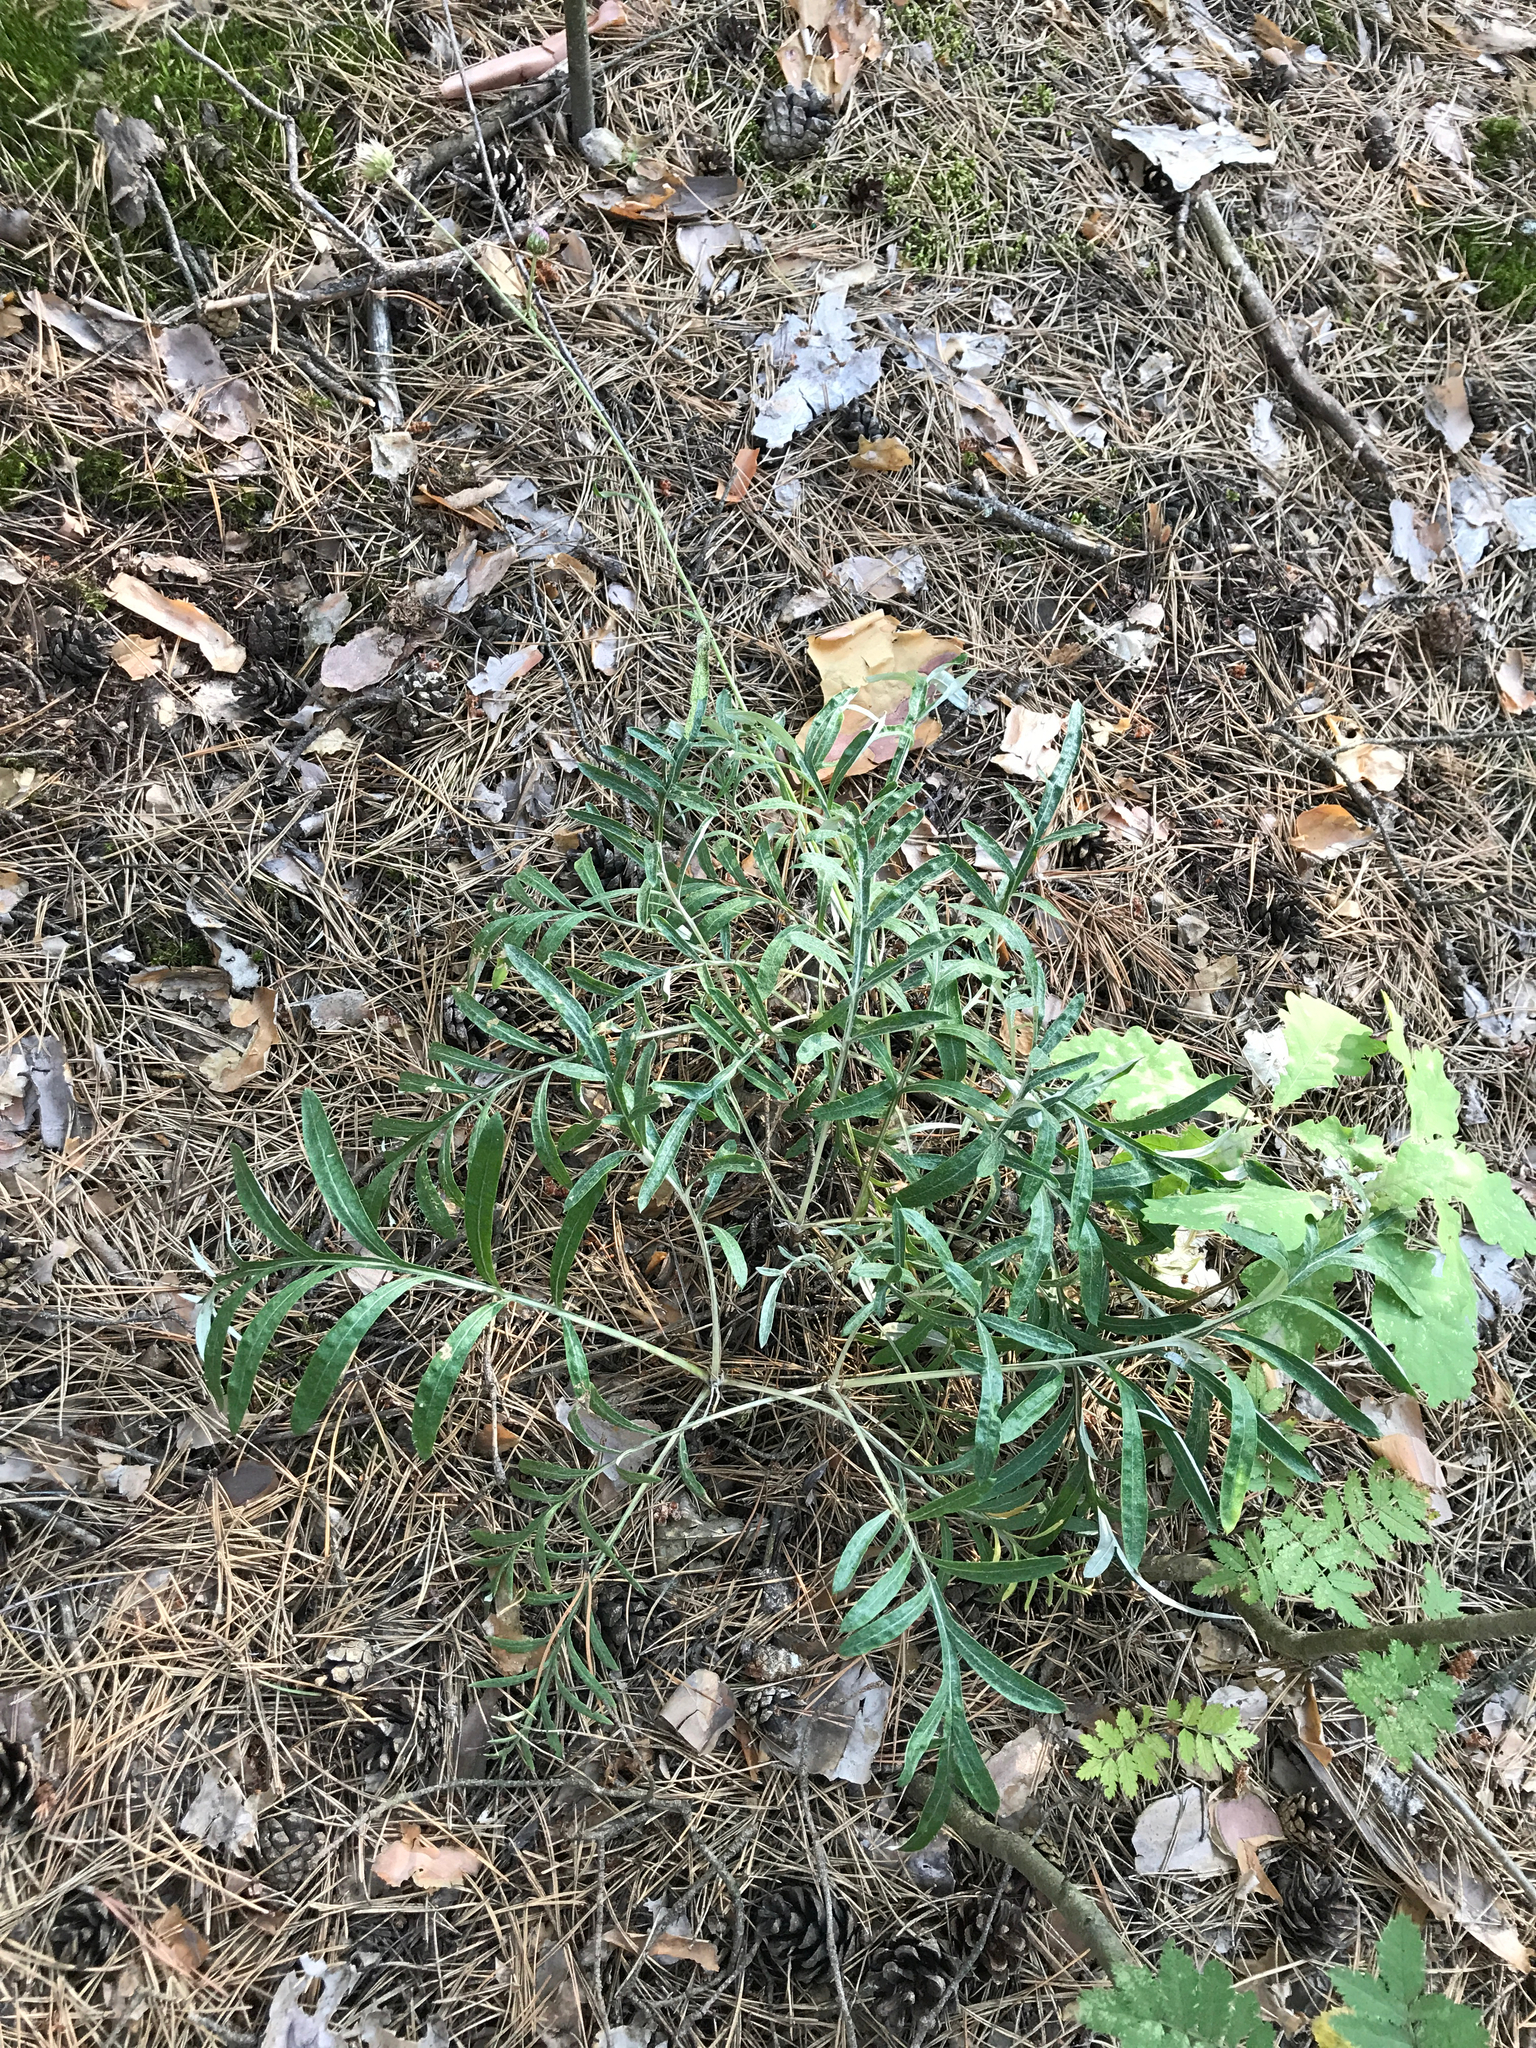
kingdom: Plantae
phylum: Tracheophyta
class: Magnoliopsida
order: Asterales
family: Asteraceae
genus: Jurinea
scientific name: Jurinea cyanoides
